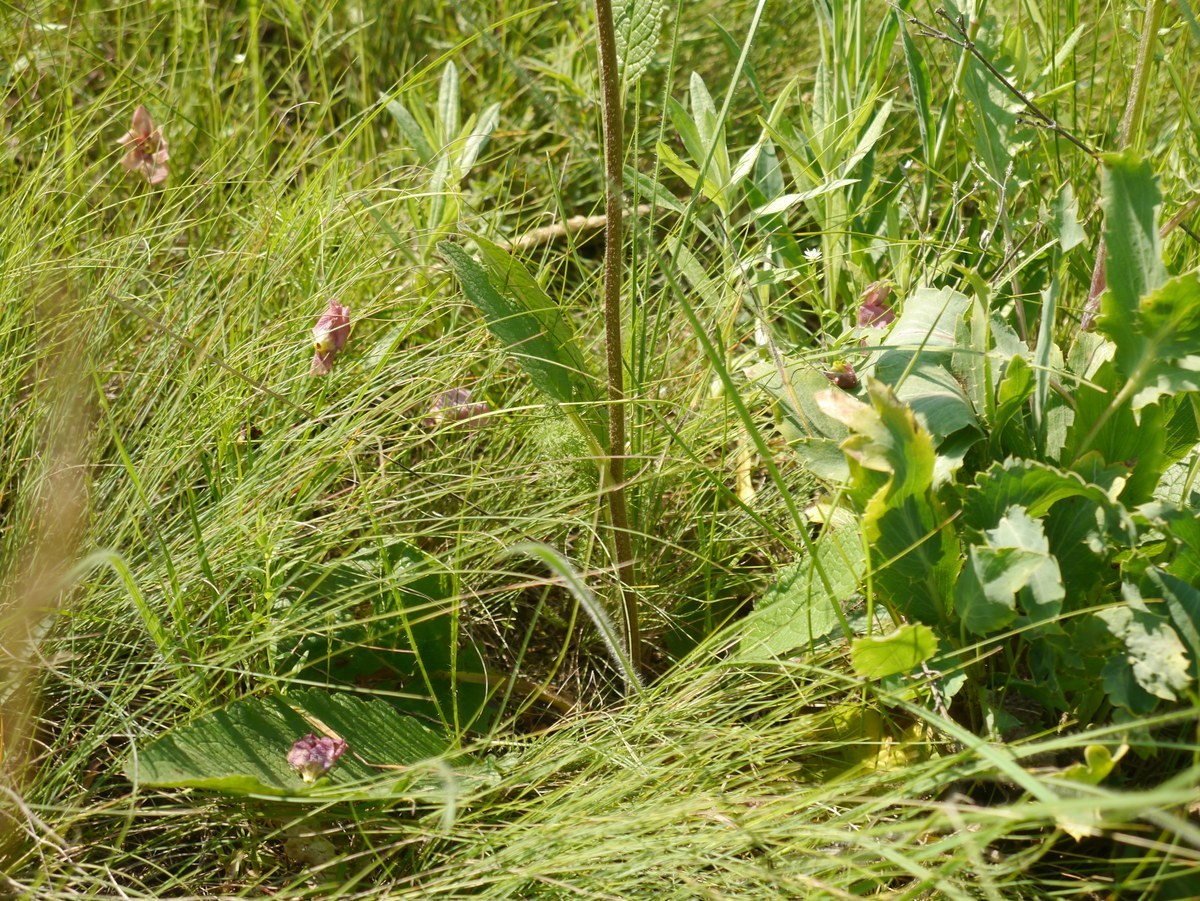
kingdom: Plantae
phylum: Tracheophyta
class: Magnoliopsida
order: Lamiales
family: Scrophulariaceae
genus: Verbascum
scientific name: Verbascum phoeniceum
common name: Purple mullein
